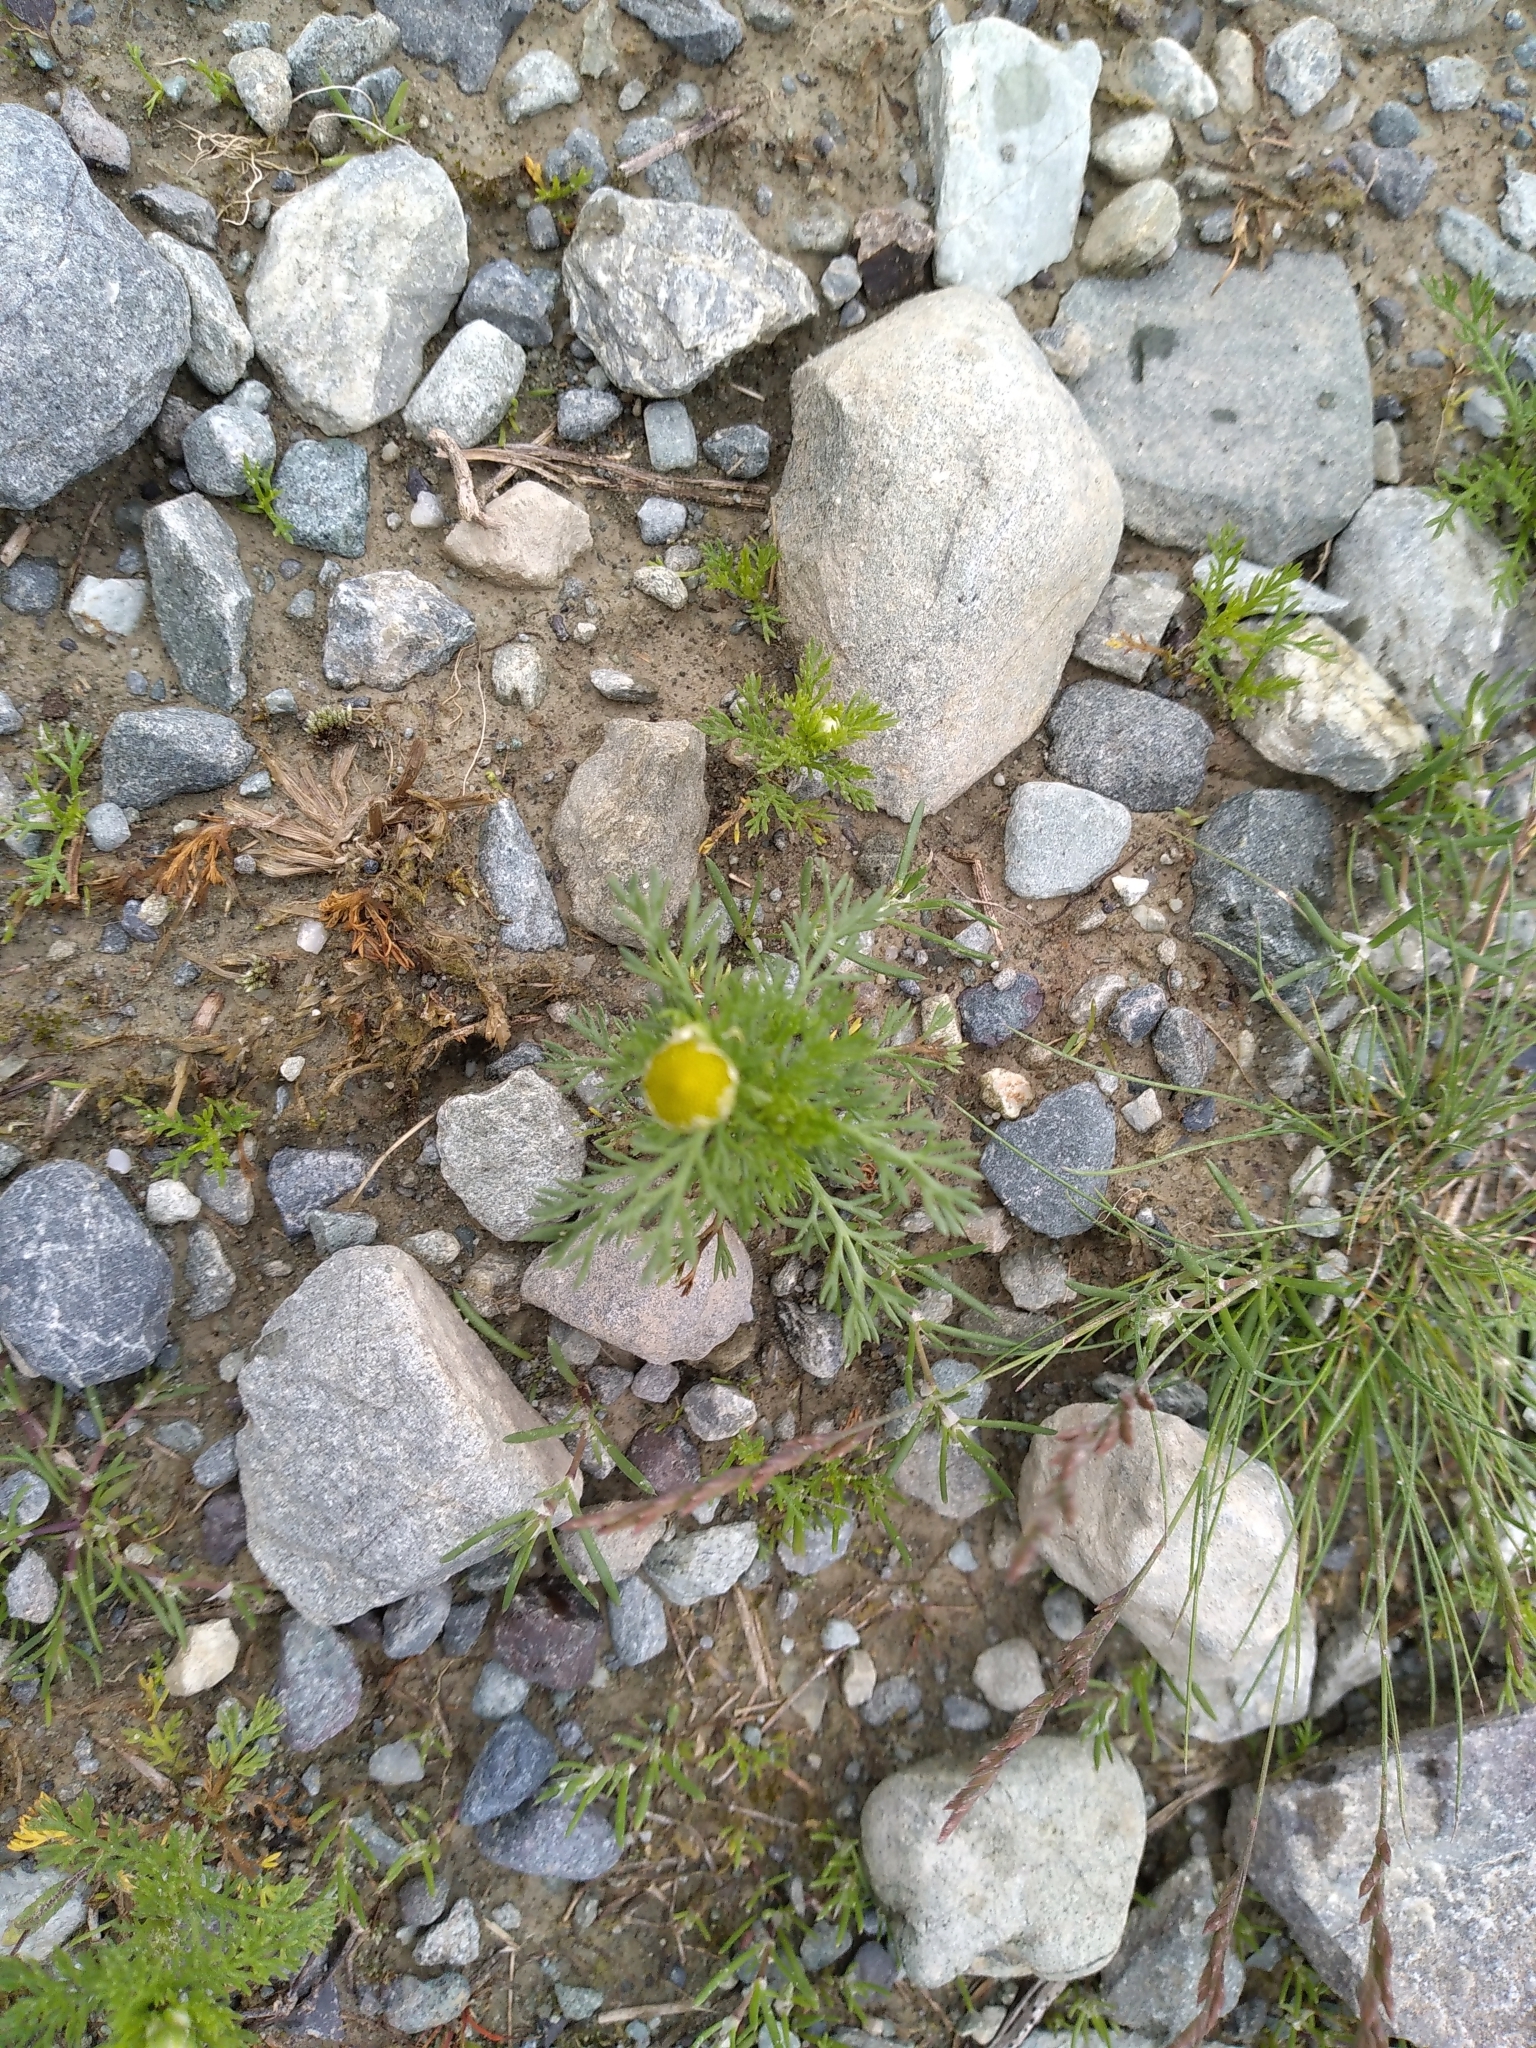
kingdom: Plantae
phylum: Tracheophyta
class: Magnoliopsida
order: Asterales
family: Asteraceae
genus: Matricaria
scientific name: Matricaria discoidea
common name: Disc mayweed
